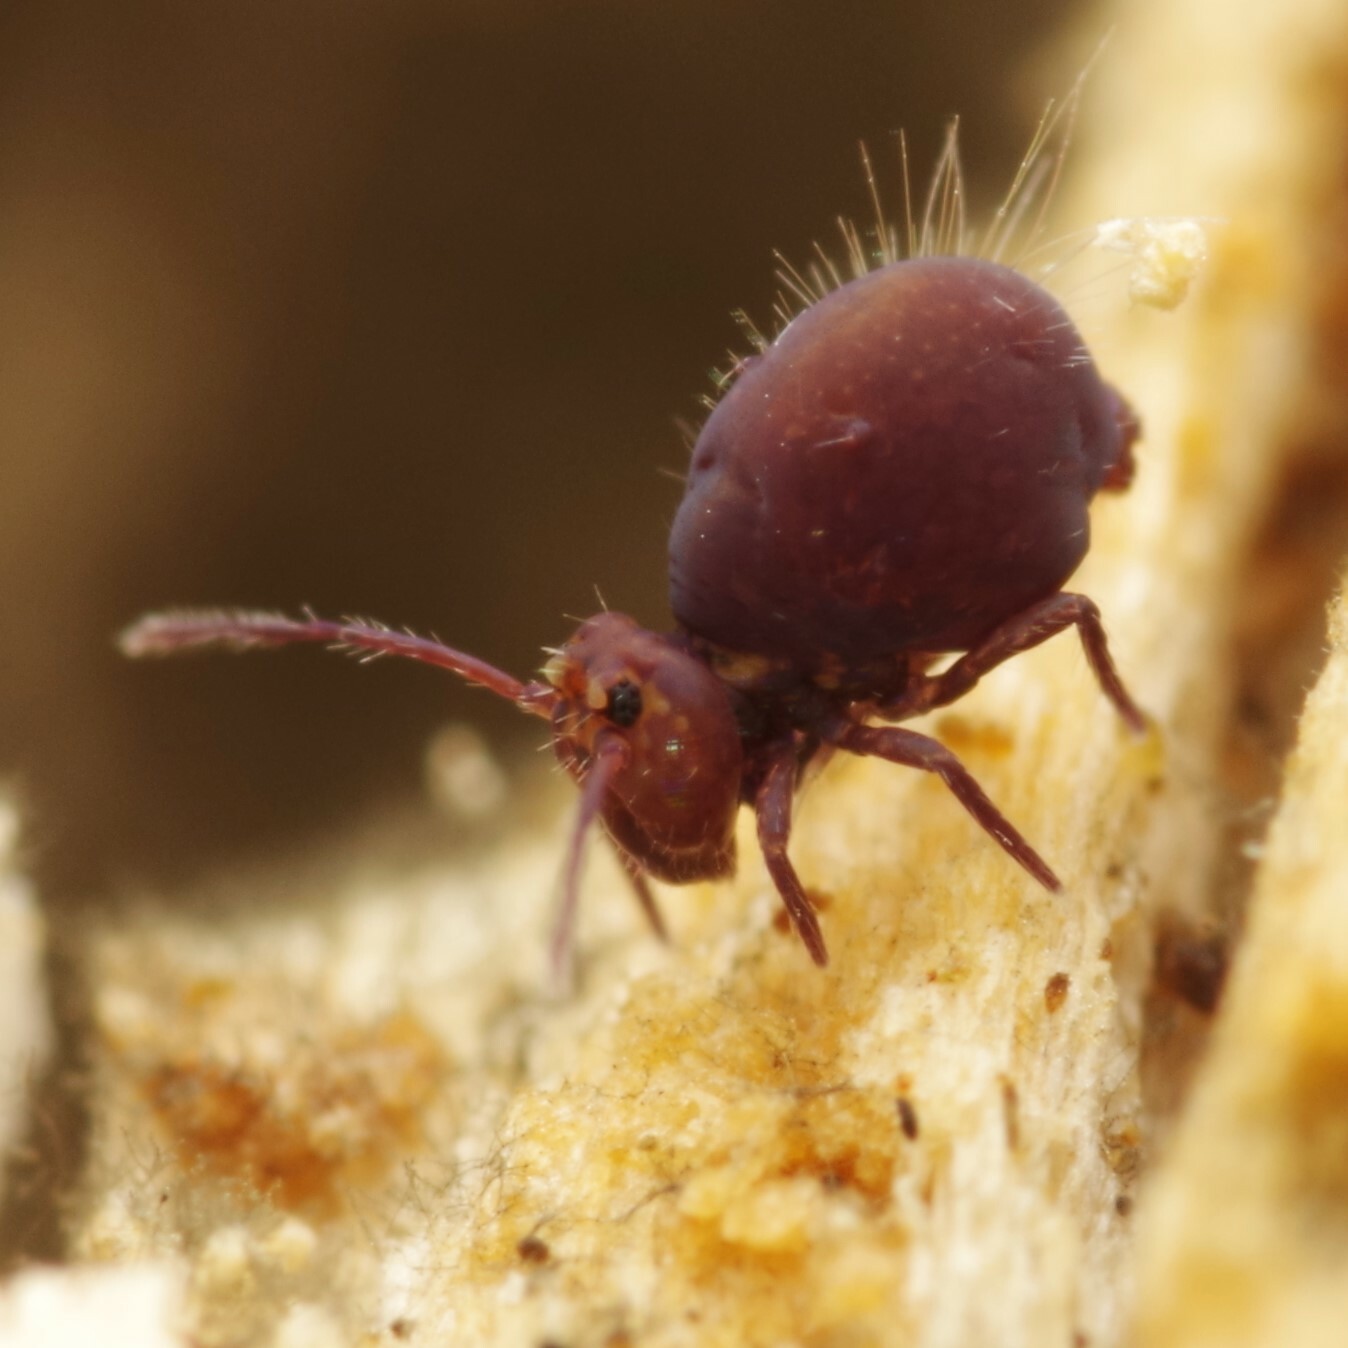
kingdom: Animalia
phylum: Arthropoda
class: Collembola
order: Symphypleona
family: Dicyrtomidae
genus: Dicyrtoma
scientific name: Dicyrtoma fusca
